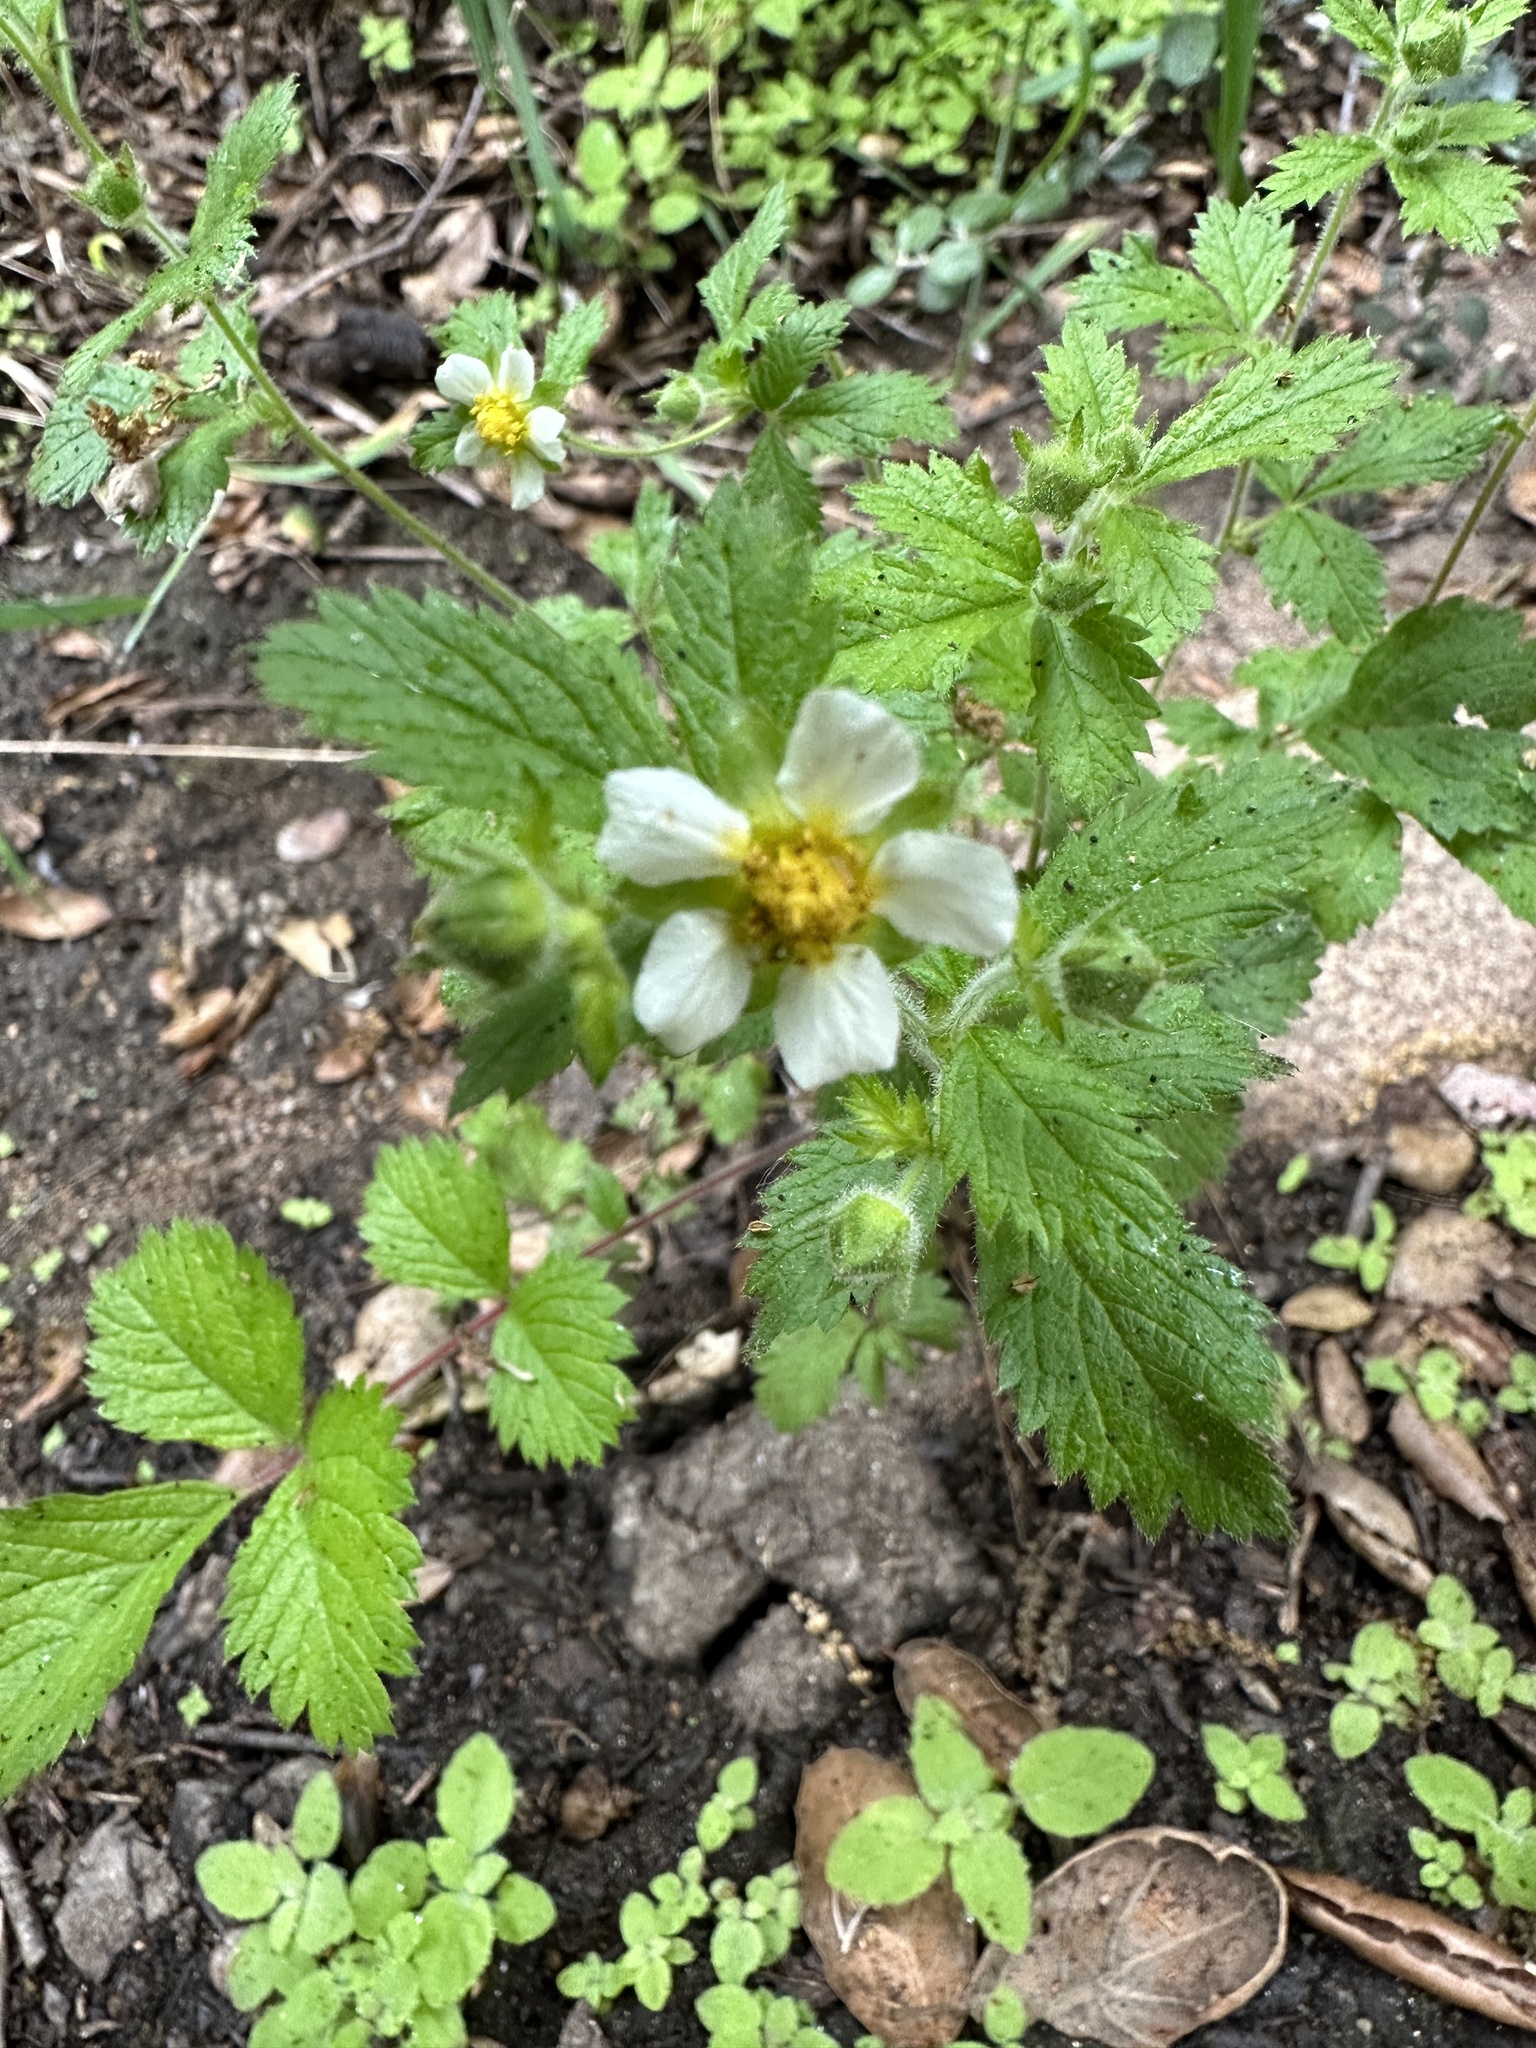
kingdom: Plantae
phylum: Tracheophyta
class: Magnoliopsida
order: Rosales
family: Rosaceae
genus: Drymocallis
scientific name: Drymocallis glandulosa
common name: Sticky cinquefoil
